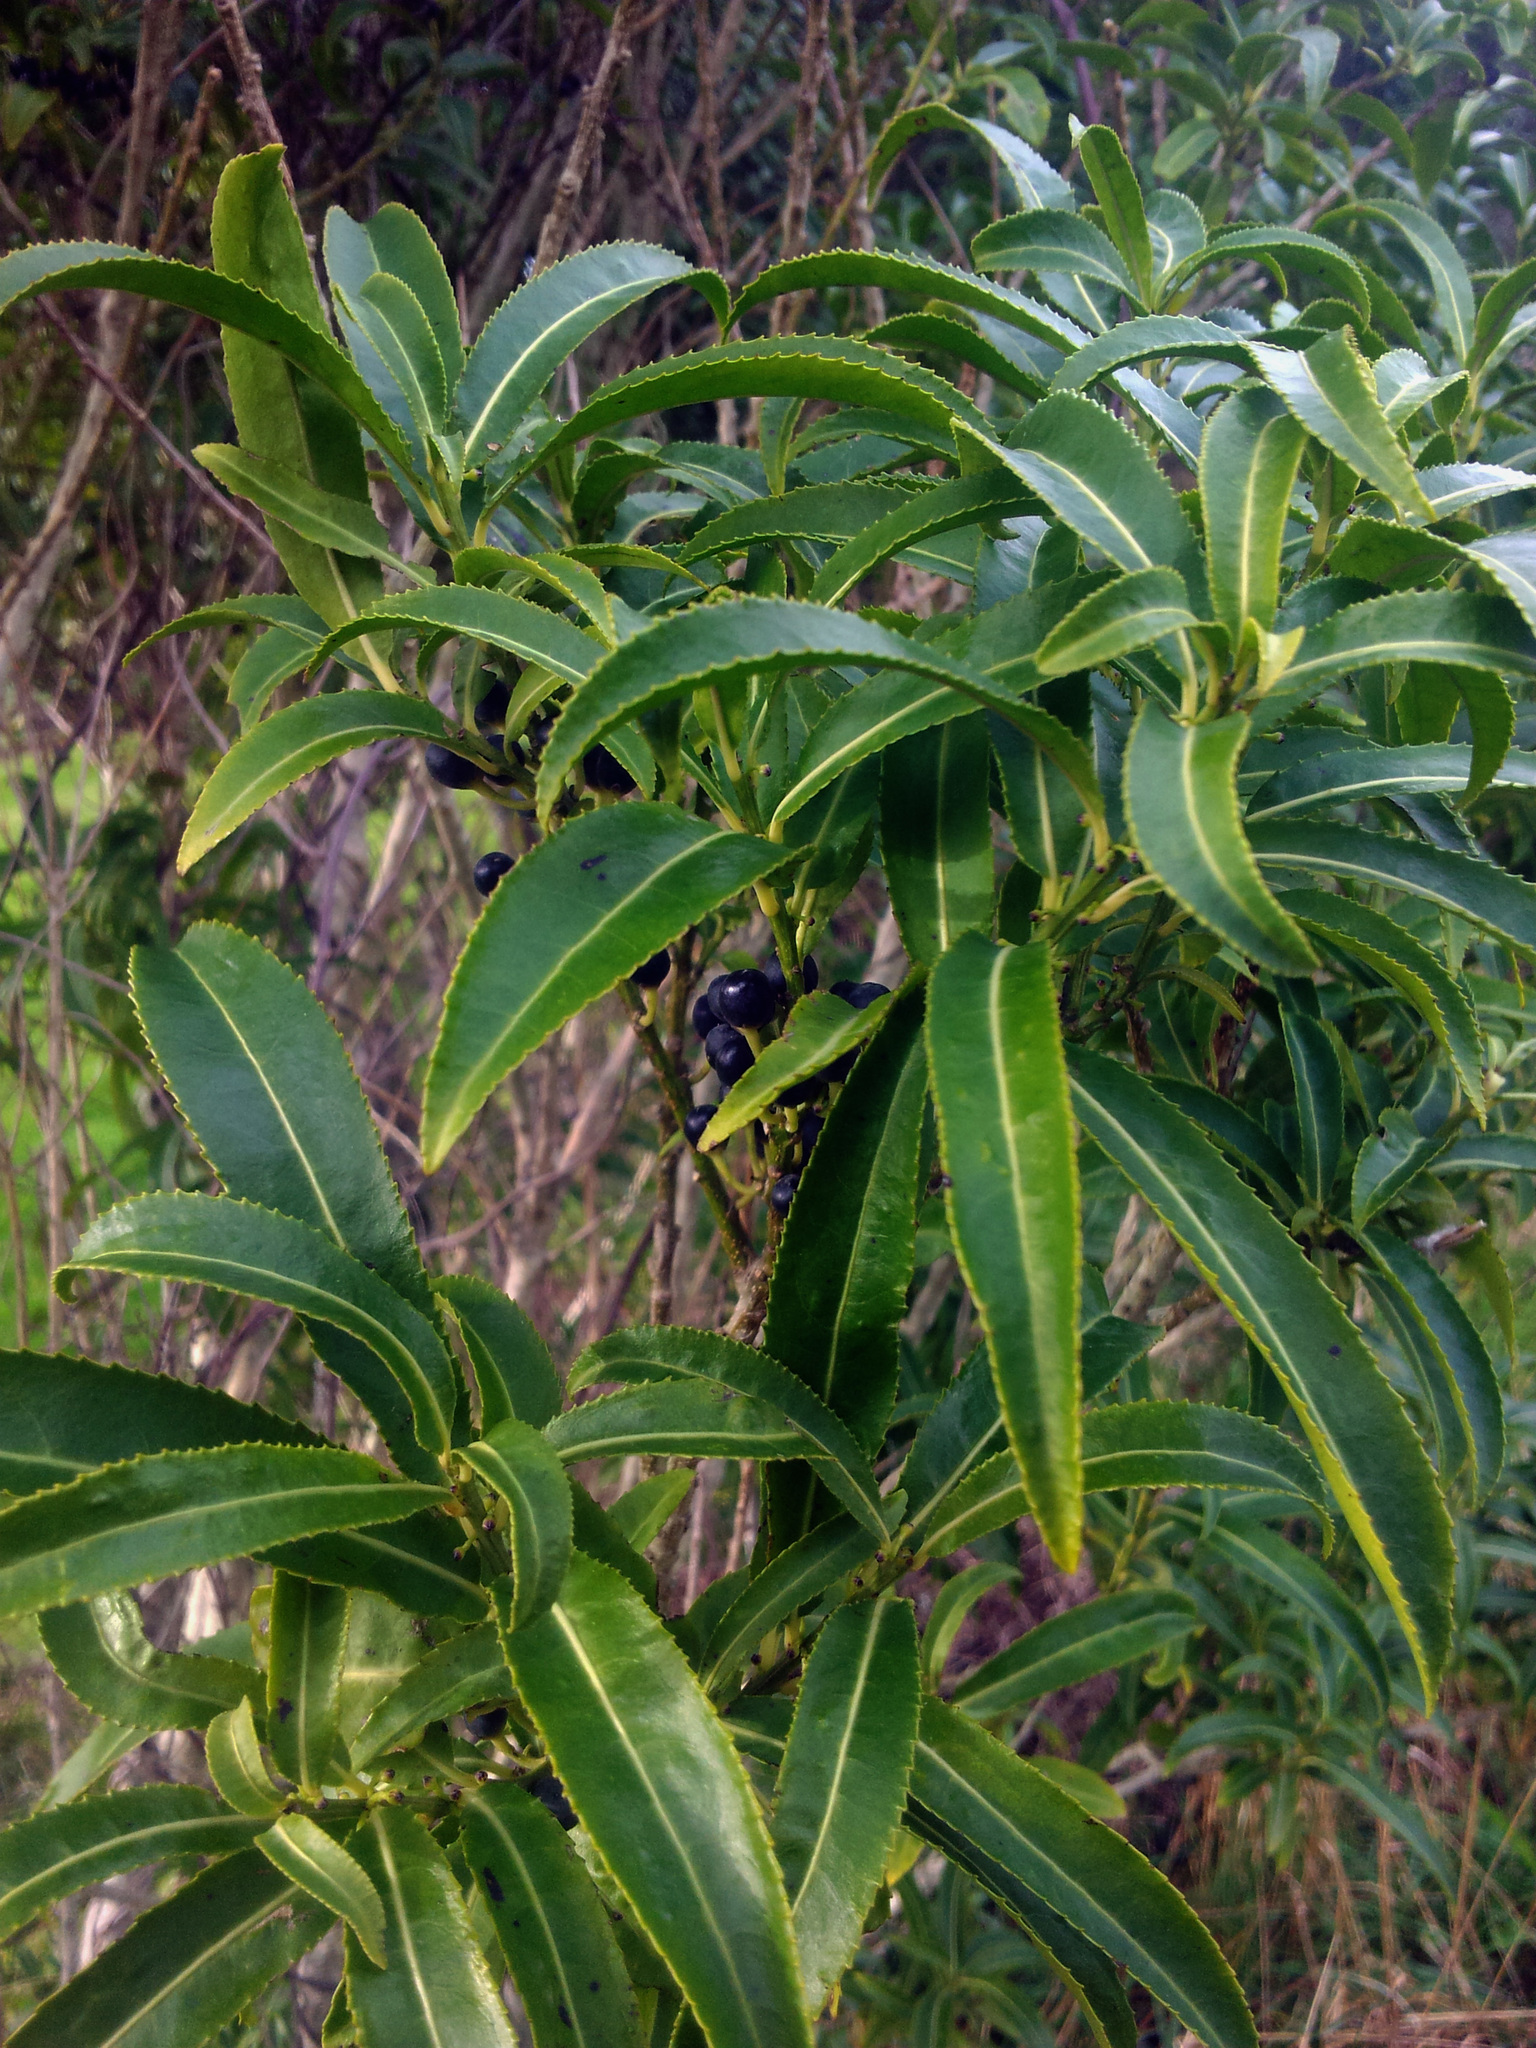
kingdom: Plantae
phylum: Tracheophyta
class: Magnoliopsida
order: Malpighiales
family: Violaceae
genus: Melicytus
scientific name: Melicytus lanceolatus
